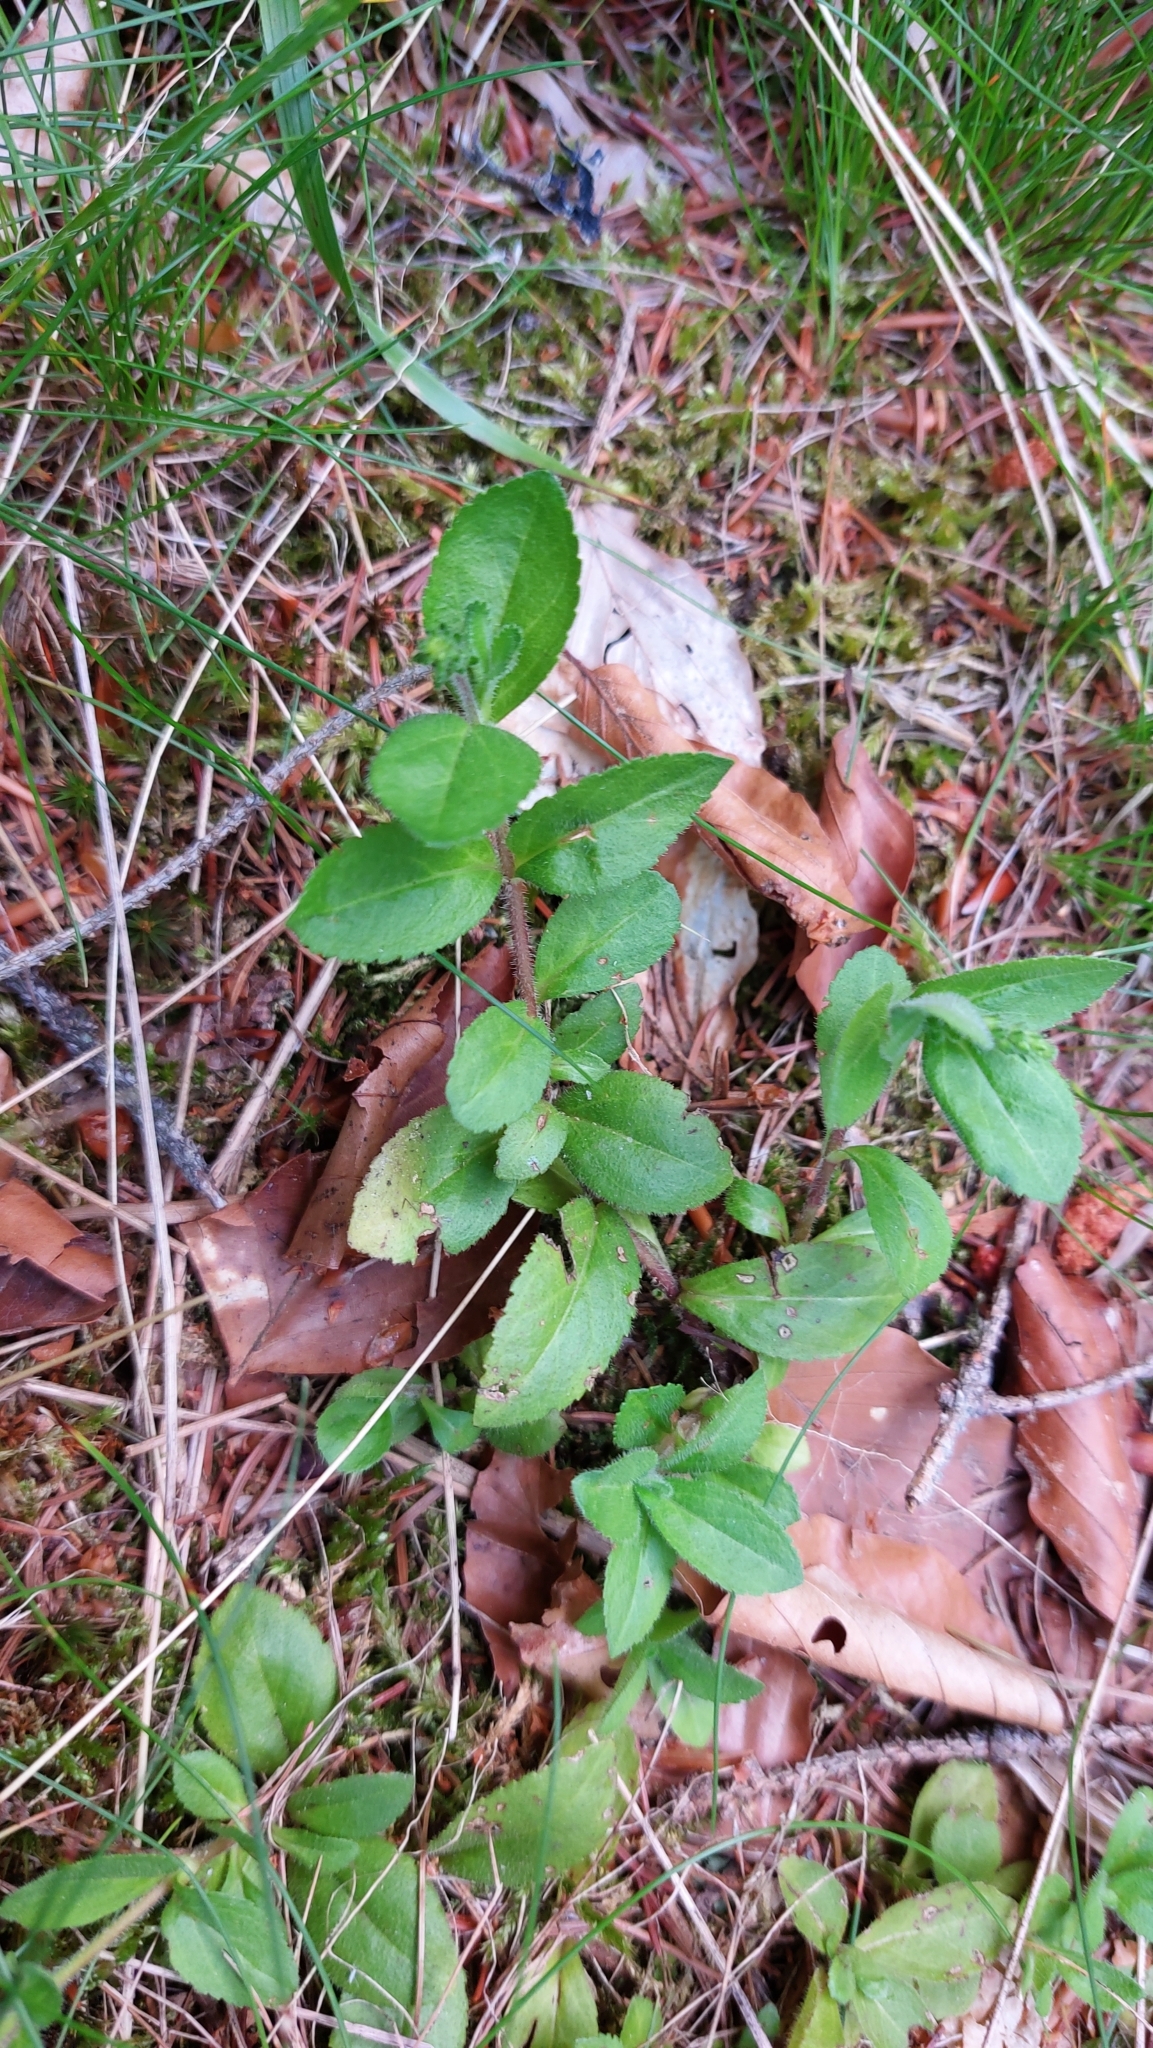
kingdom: Plantae
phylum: Tracheophyta
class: Magnoliopsida
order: Lamiales
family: Plantaginaceae
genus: Veronica
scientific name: Veronica officinalis
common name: Common speedwell
